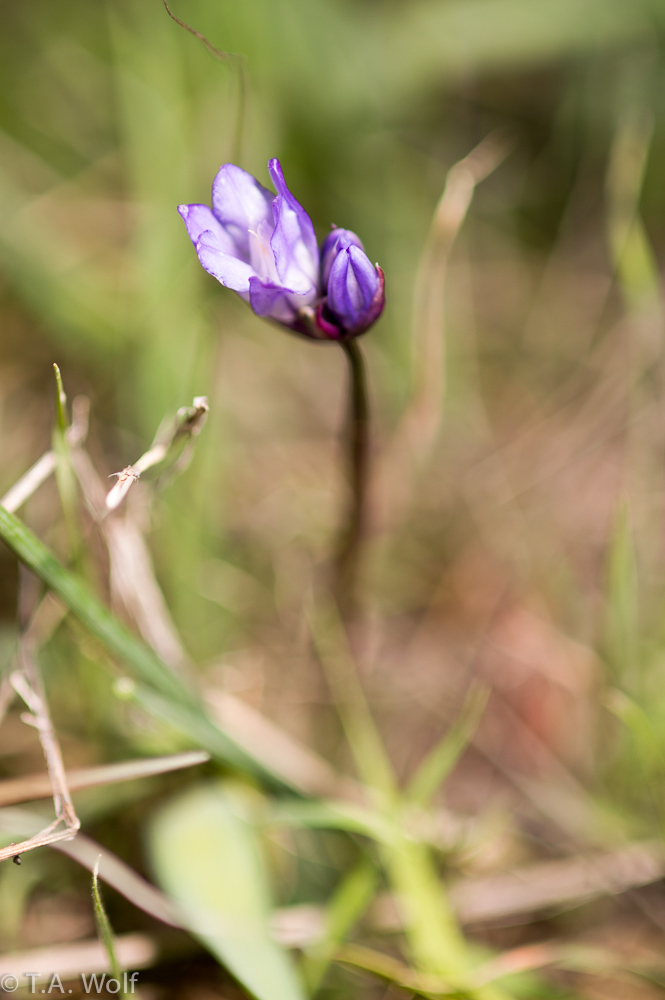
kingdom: Plantae
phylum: Tracheophyta
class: Liliopsida
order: Asparagales
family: Asparagaceae
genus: Dipterostemon
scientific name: Dipterostemon capitatus
